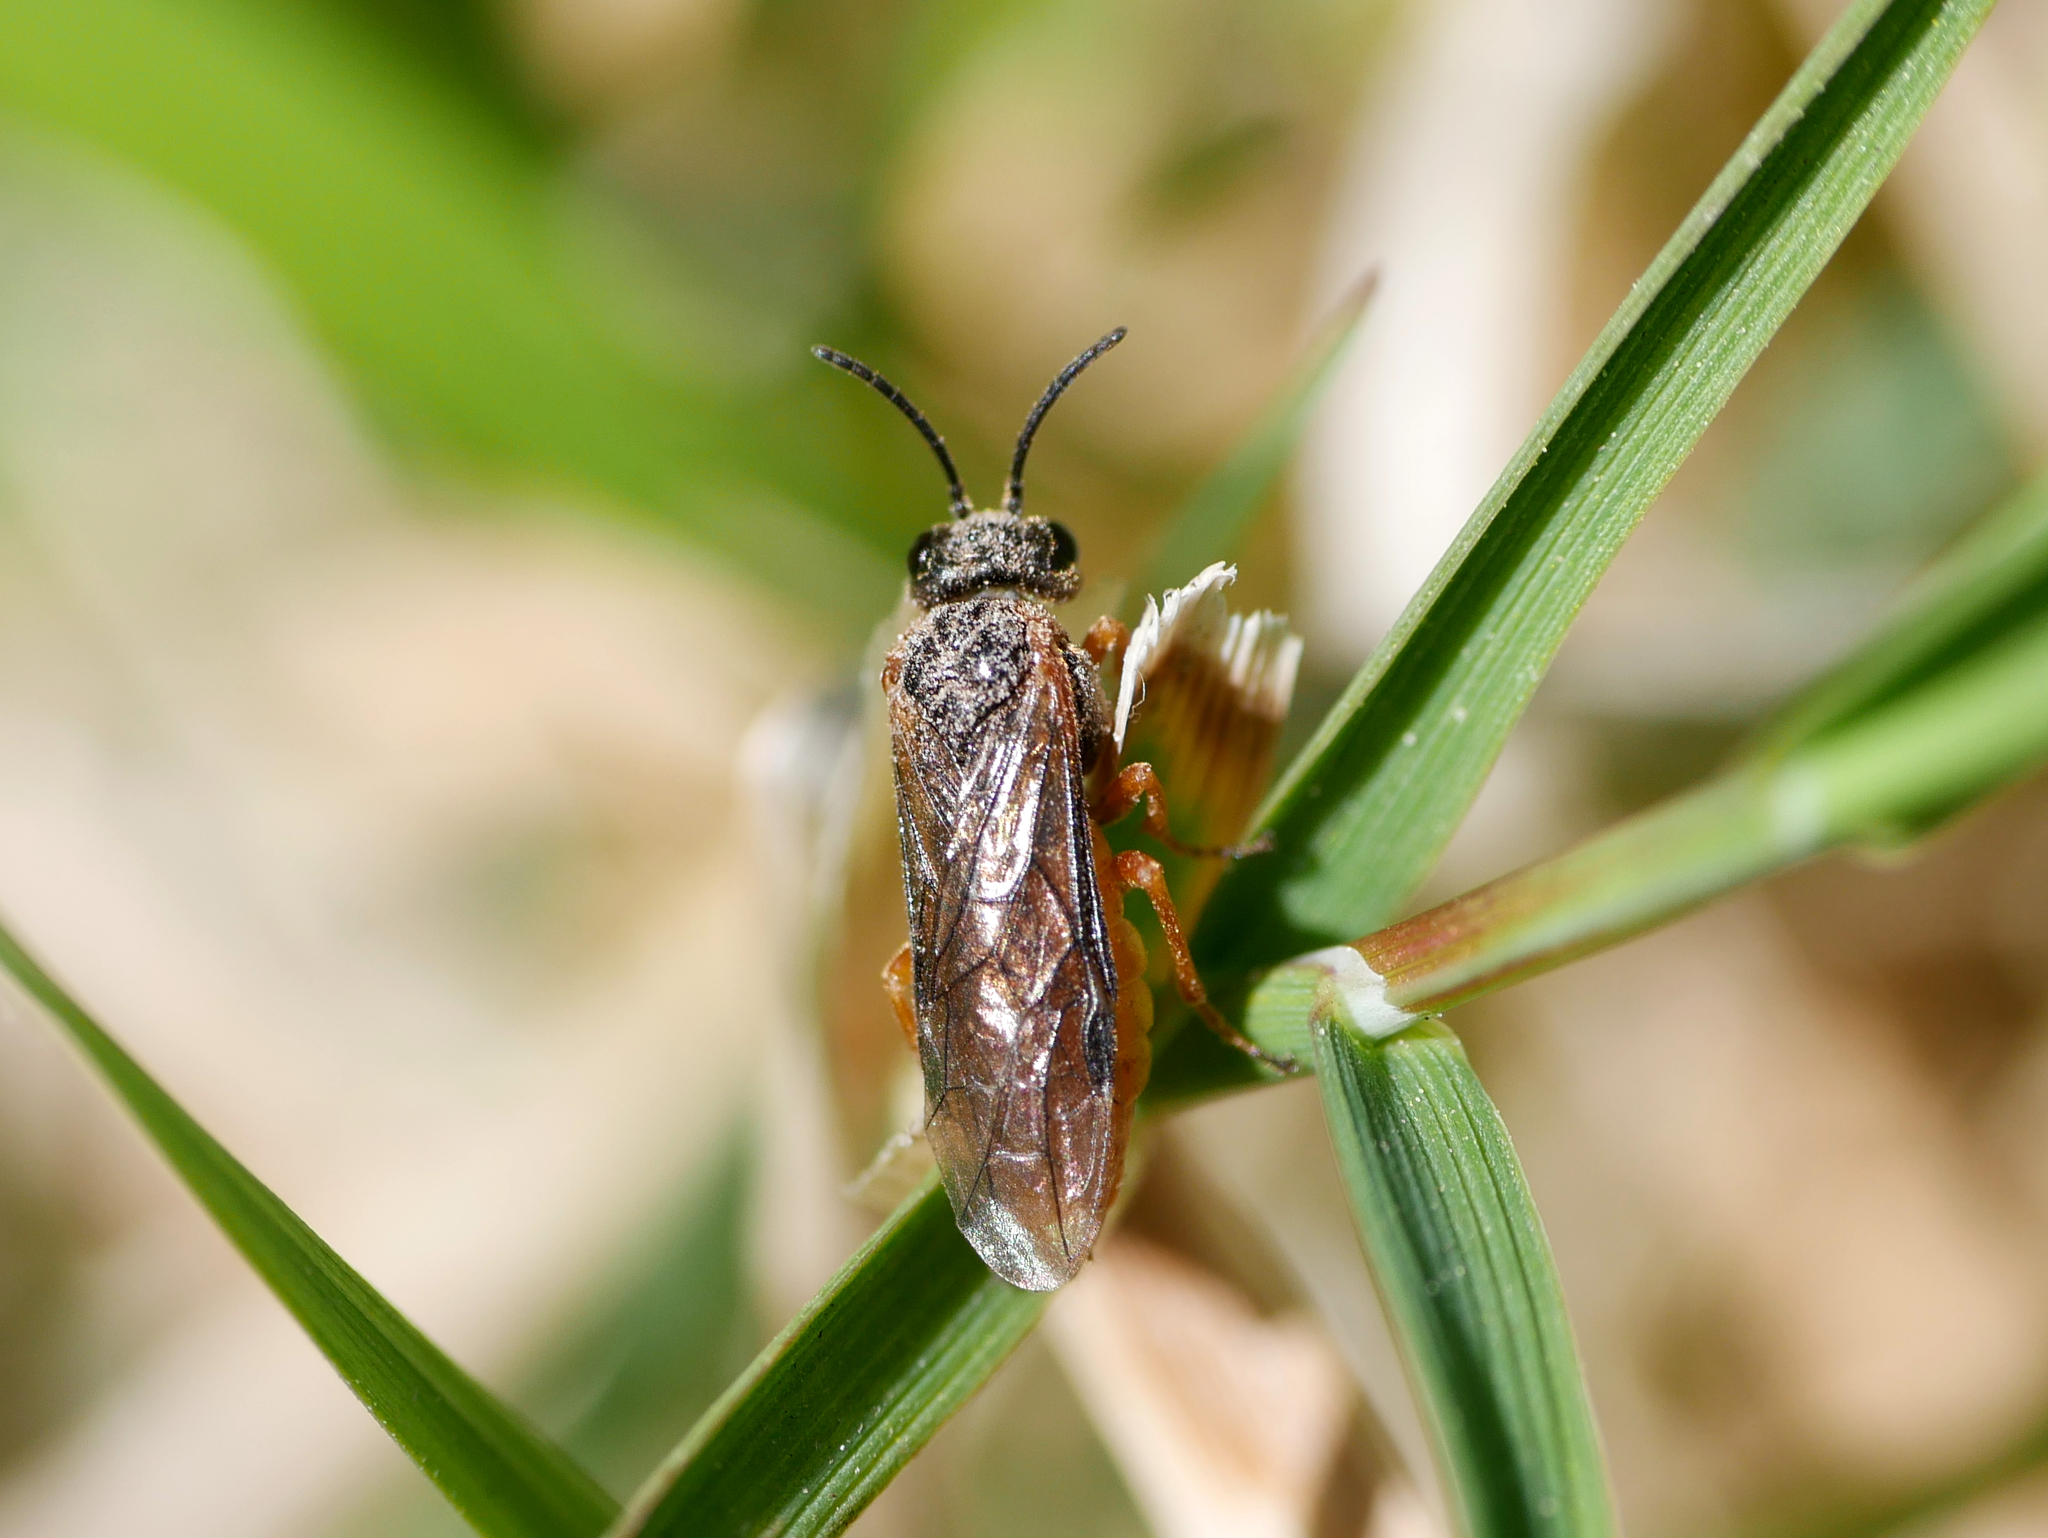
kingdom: Animalia
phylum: Arthropoda
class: Insecta
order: Hymenoptera
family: Tenthredinidae
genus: Monostegia
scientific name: Monostegia abdominalis
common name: Tenthredid wasp
